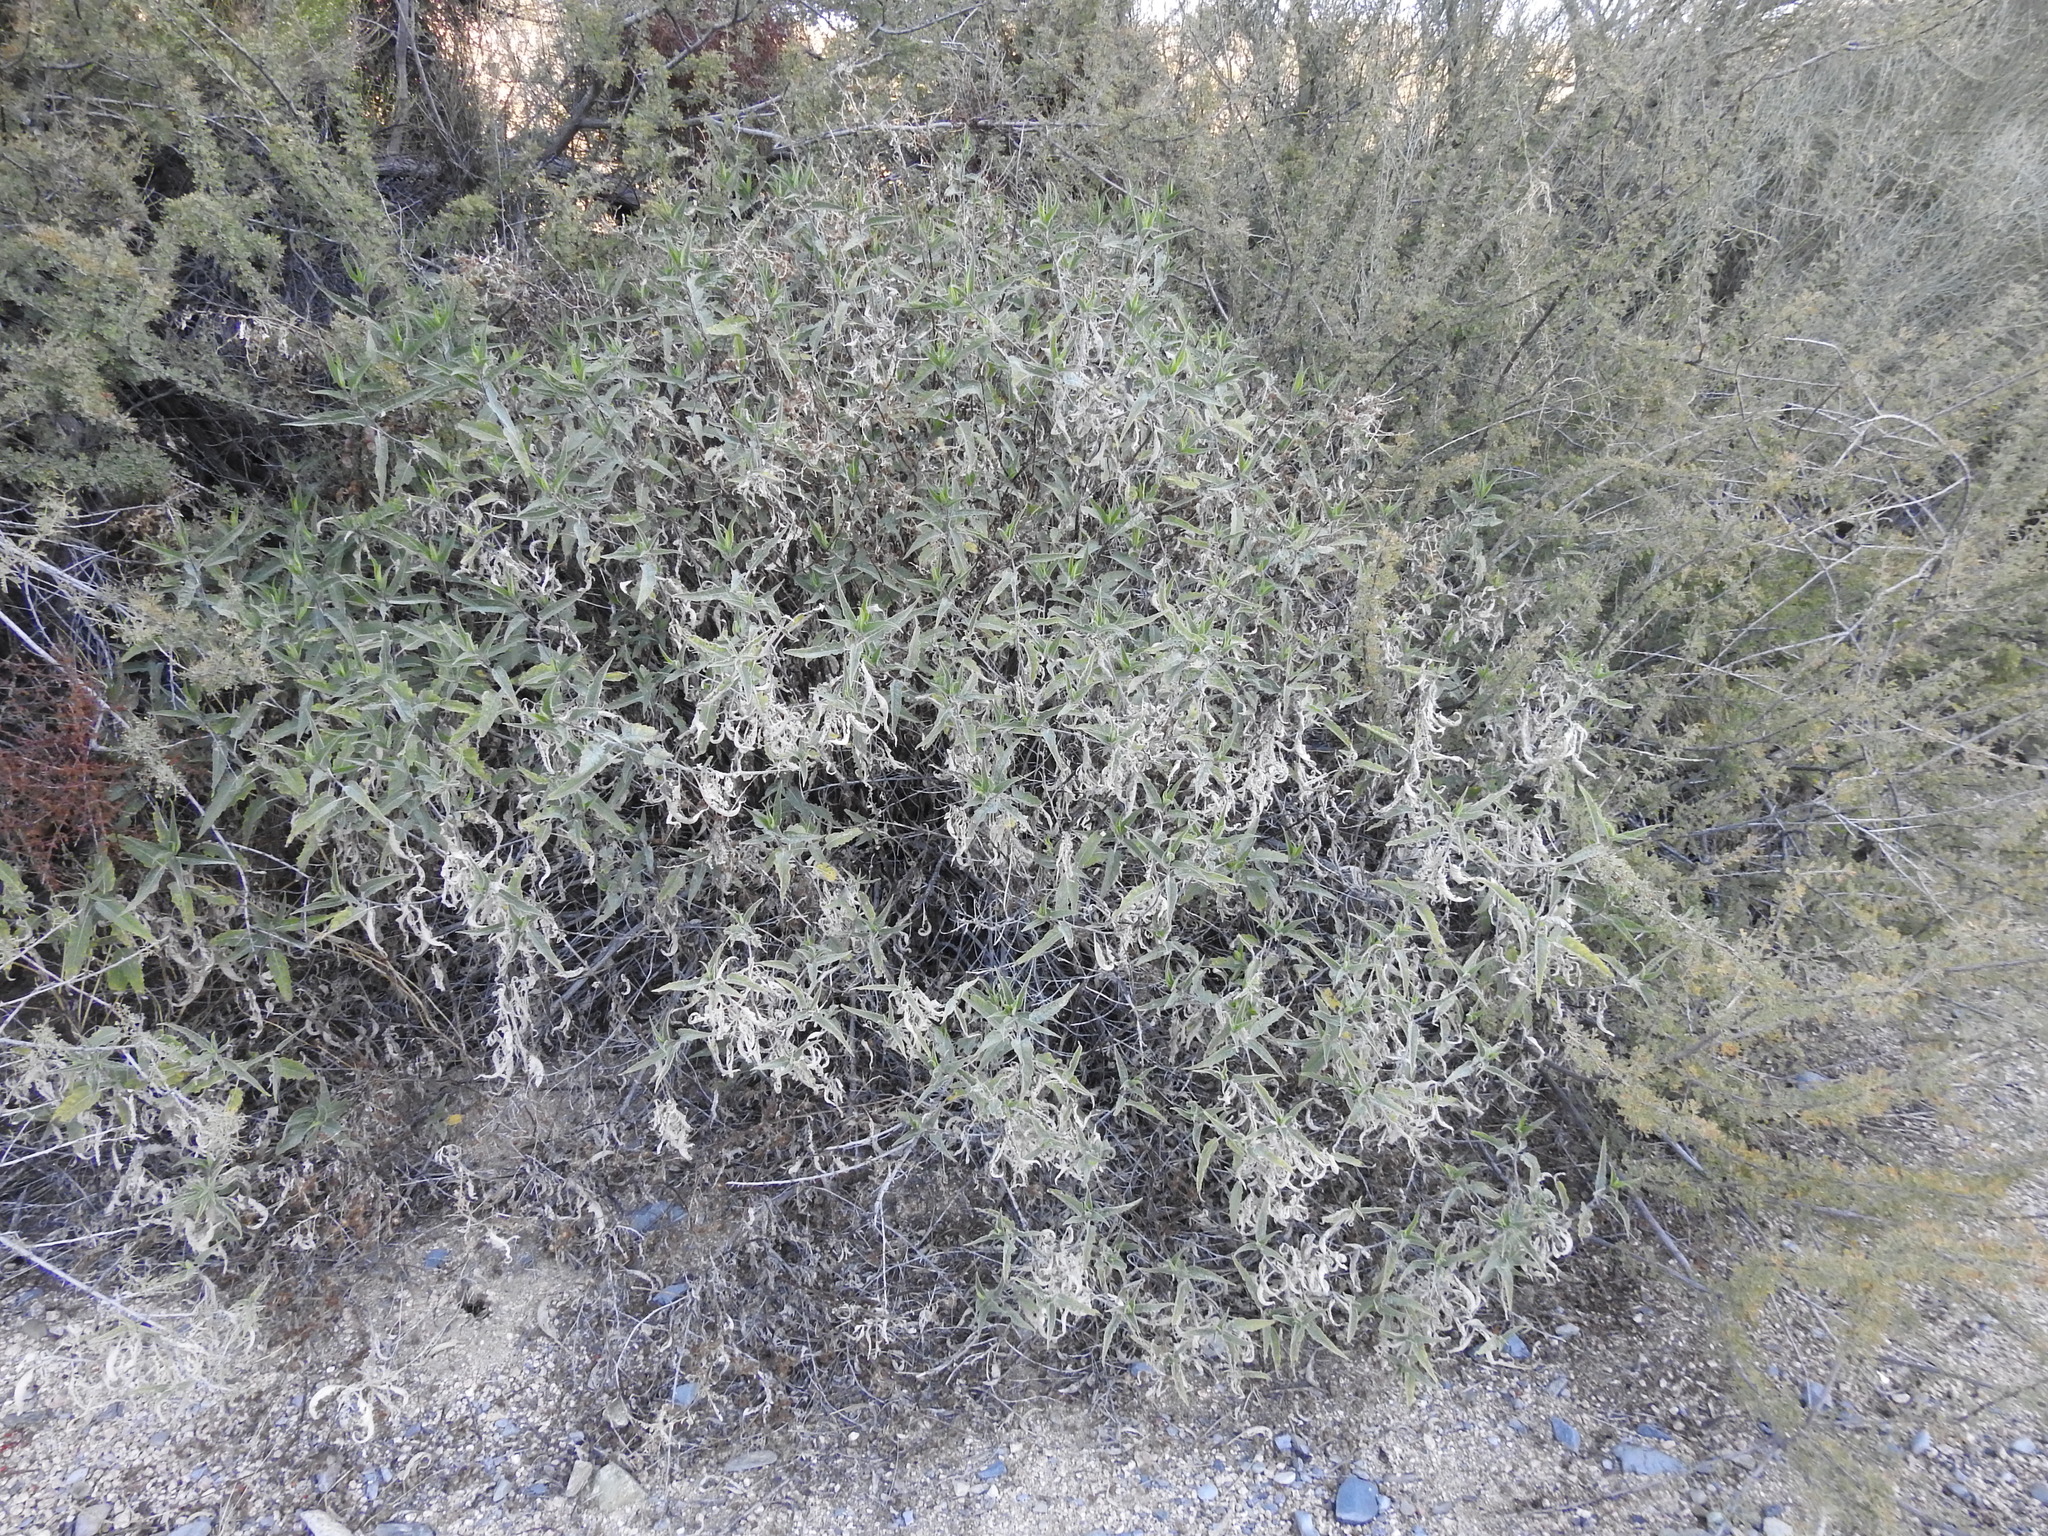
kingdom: Plantae
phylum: Tracheophyta
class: Magnoliopsida
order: Asterales
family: Asteraceae
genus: Ambrosia
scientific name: Ambrosia ambrosioides
